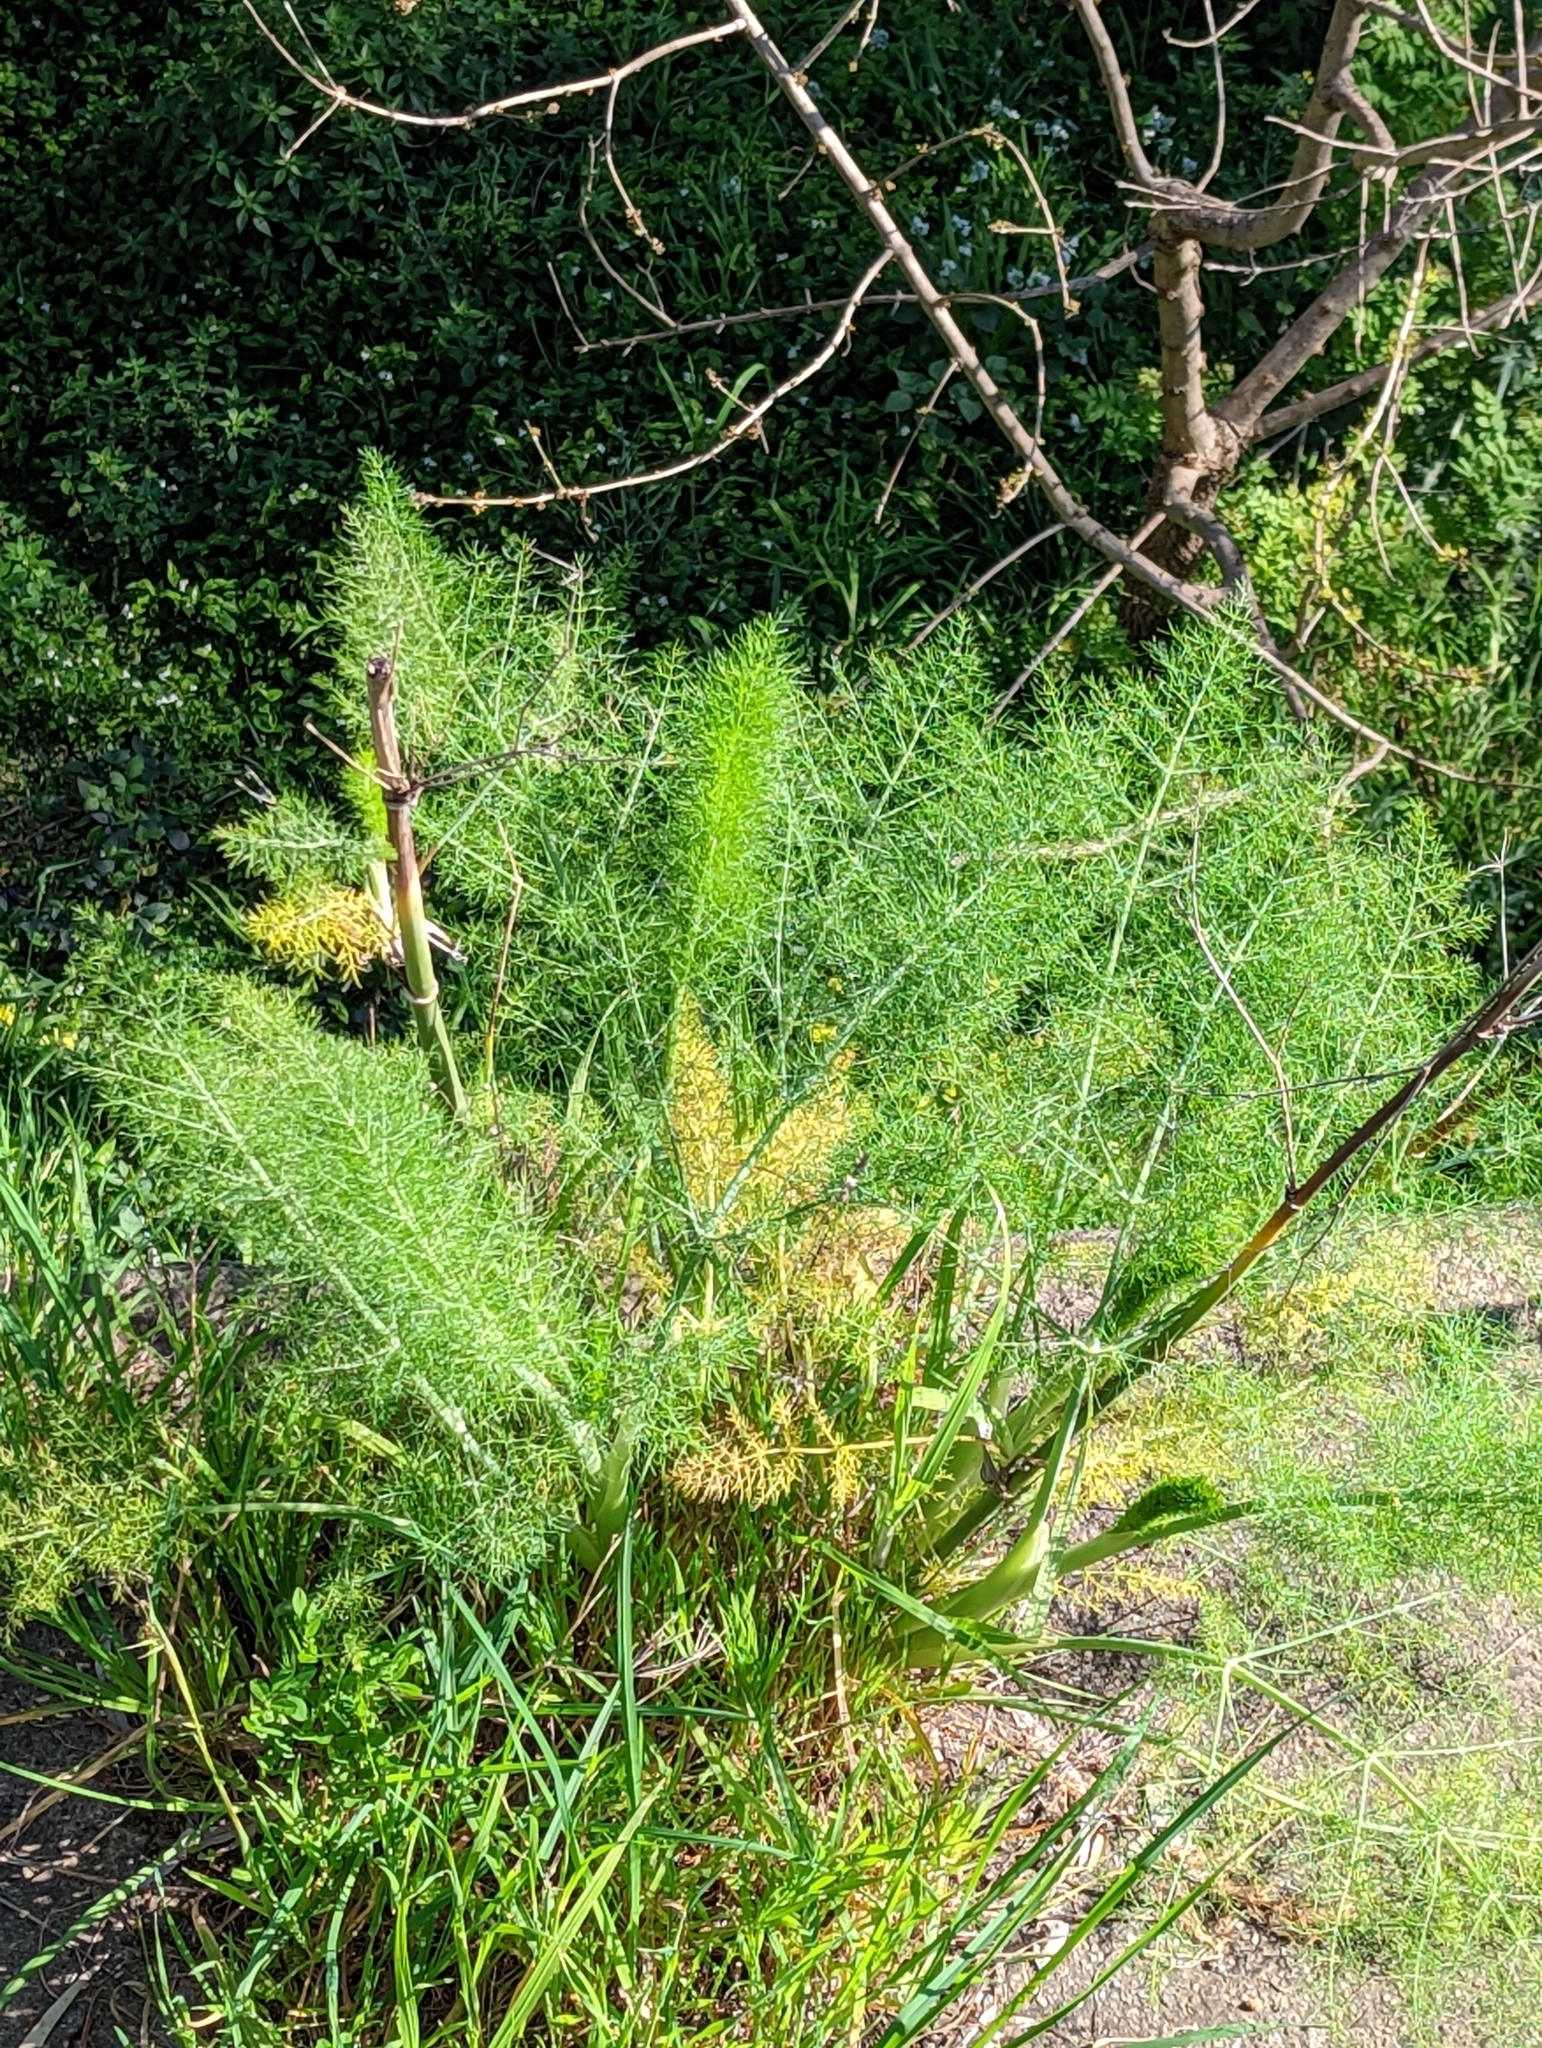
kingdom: Plantae
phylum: Tracheophyta
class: Magnoliopsida
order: Apiales
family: Apiaceae
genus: Foeniculum
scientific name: Foeniculum vulgare
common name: Fennel
